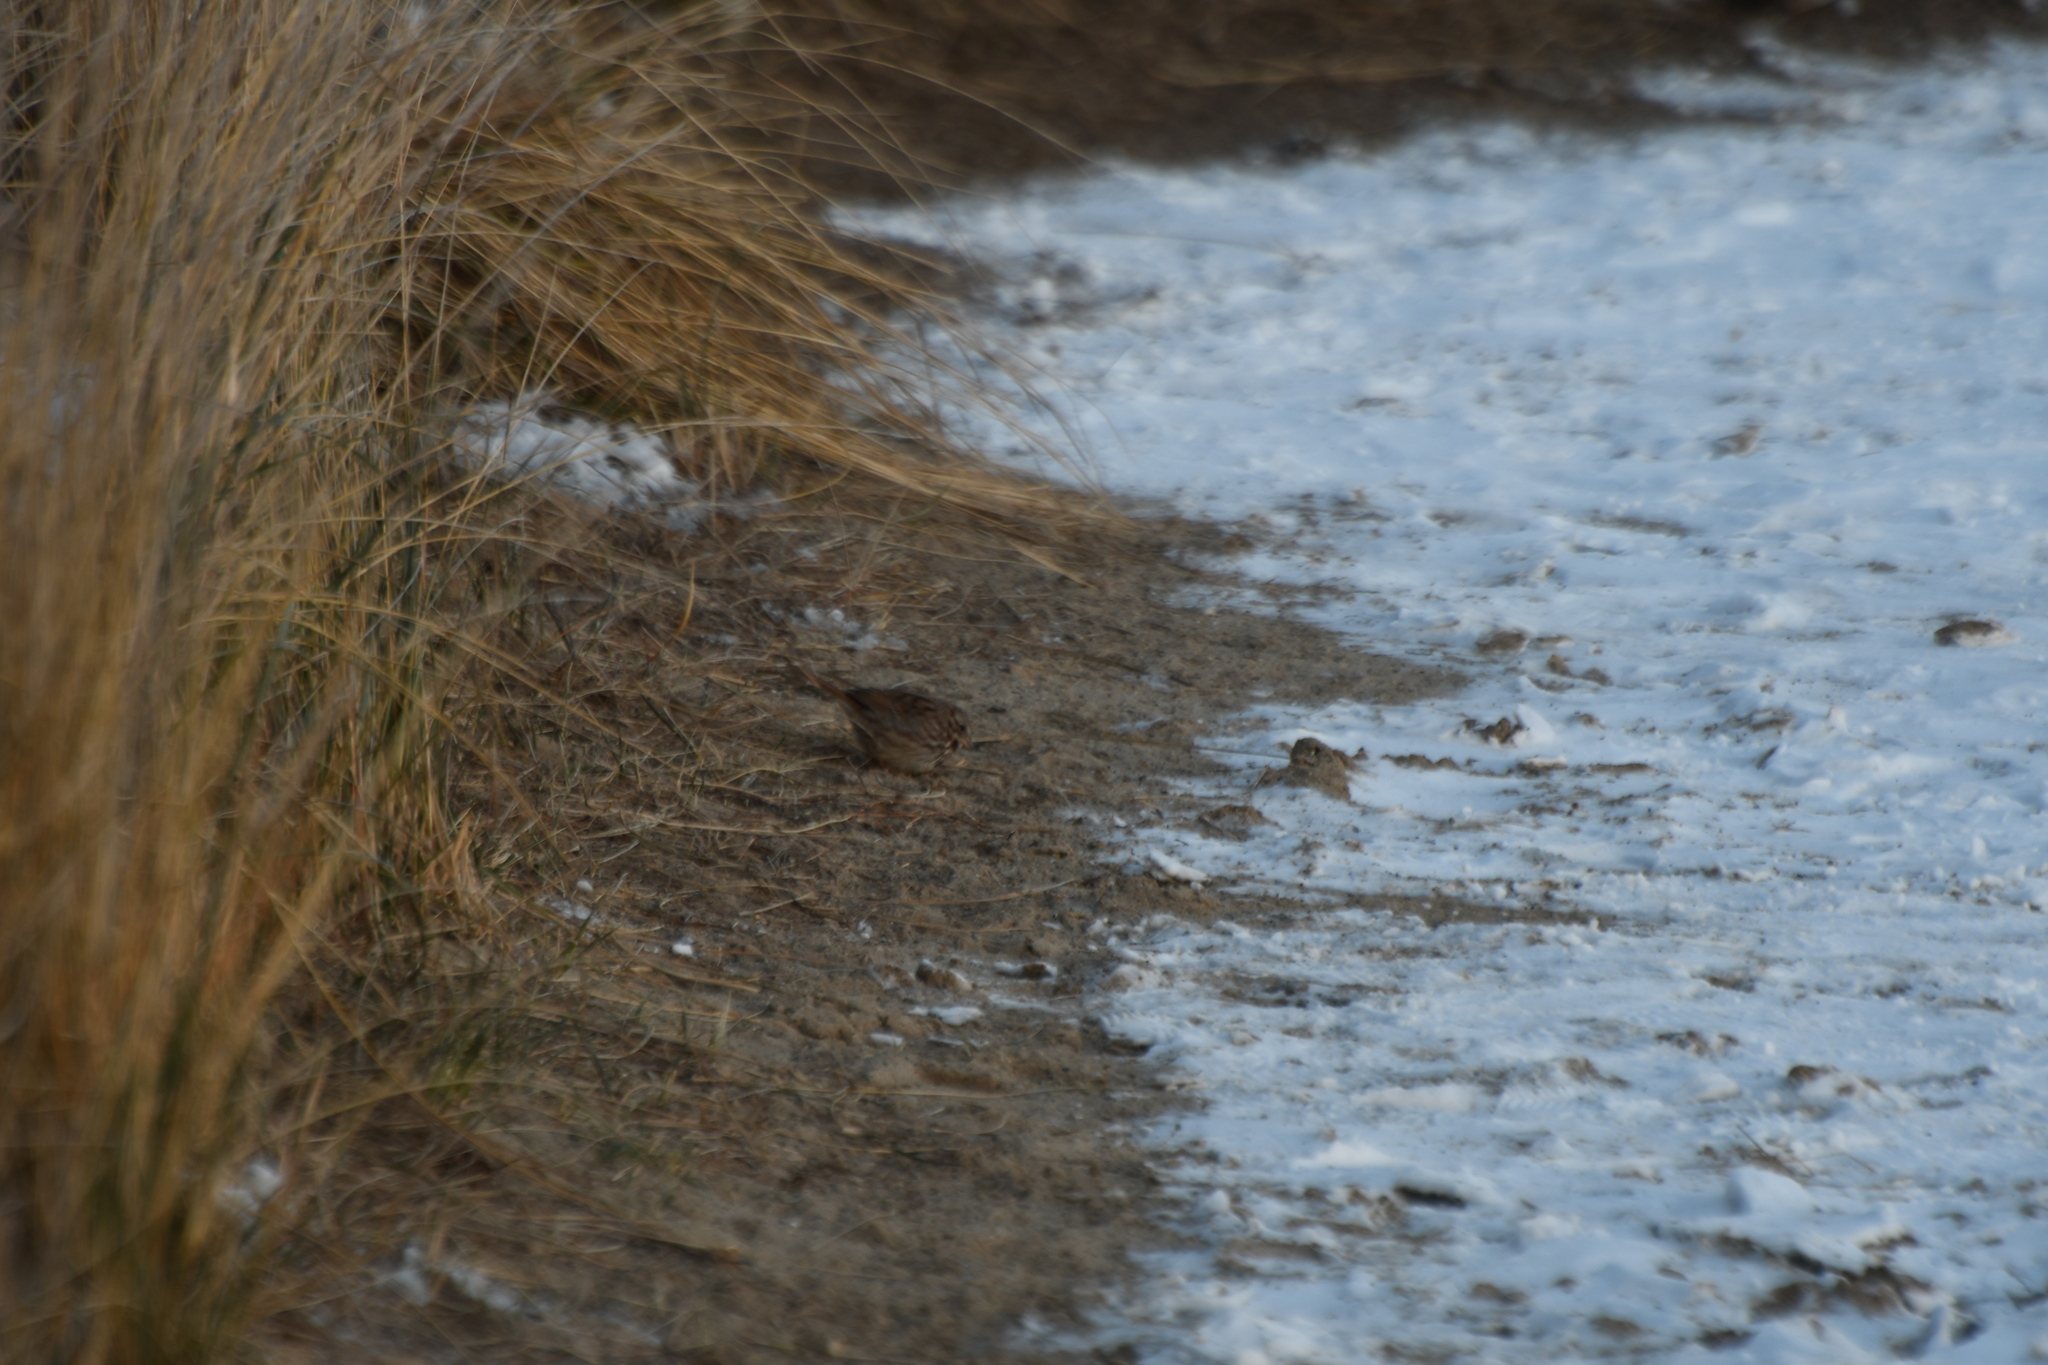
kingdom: Animalia
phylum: Chordata
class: Aves
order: Passeriformes
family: Passerellidae
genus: Melospiza
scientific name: Melospiza melodia
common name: Song sparrow
